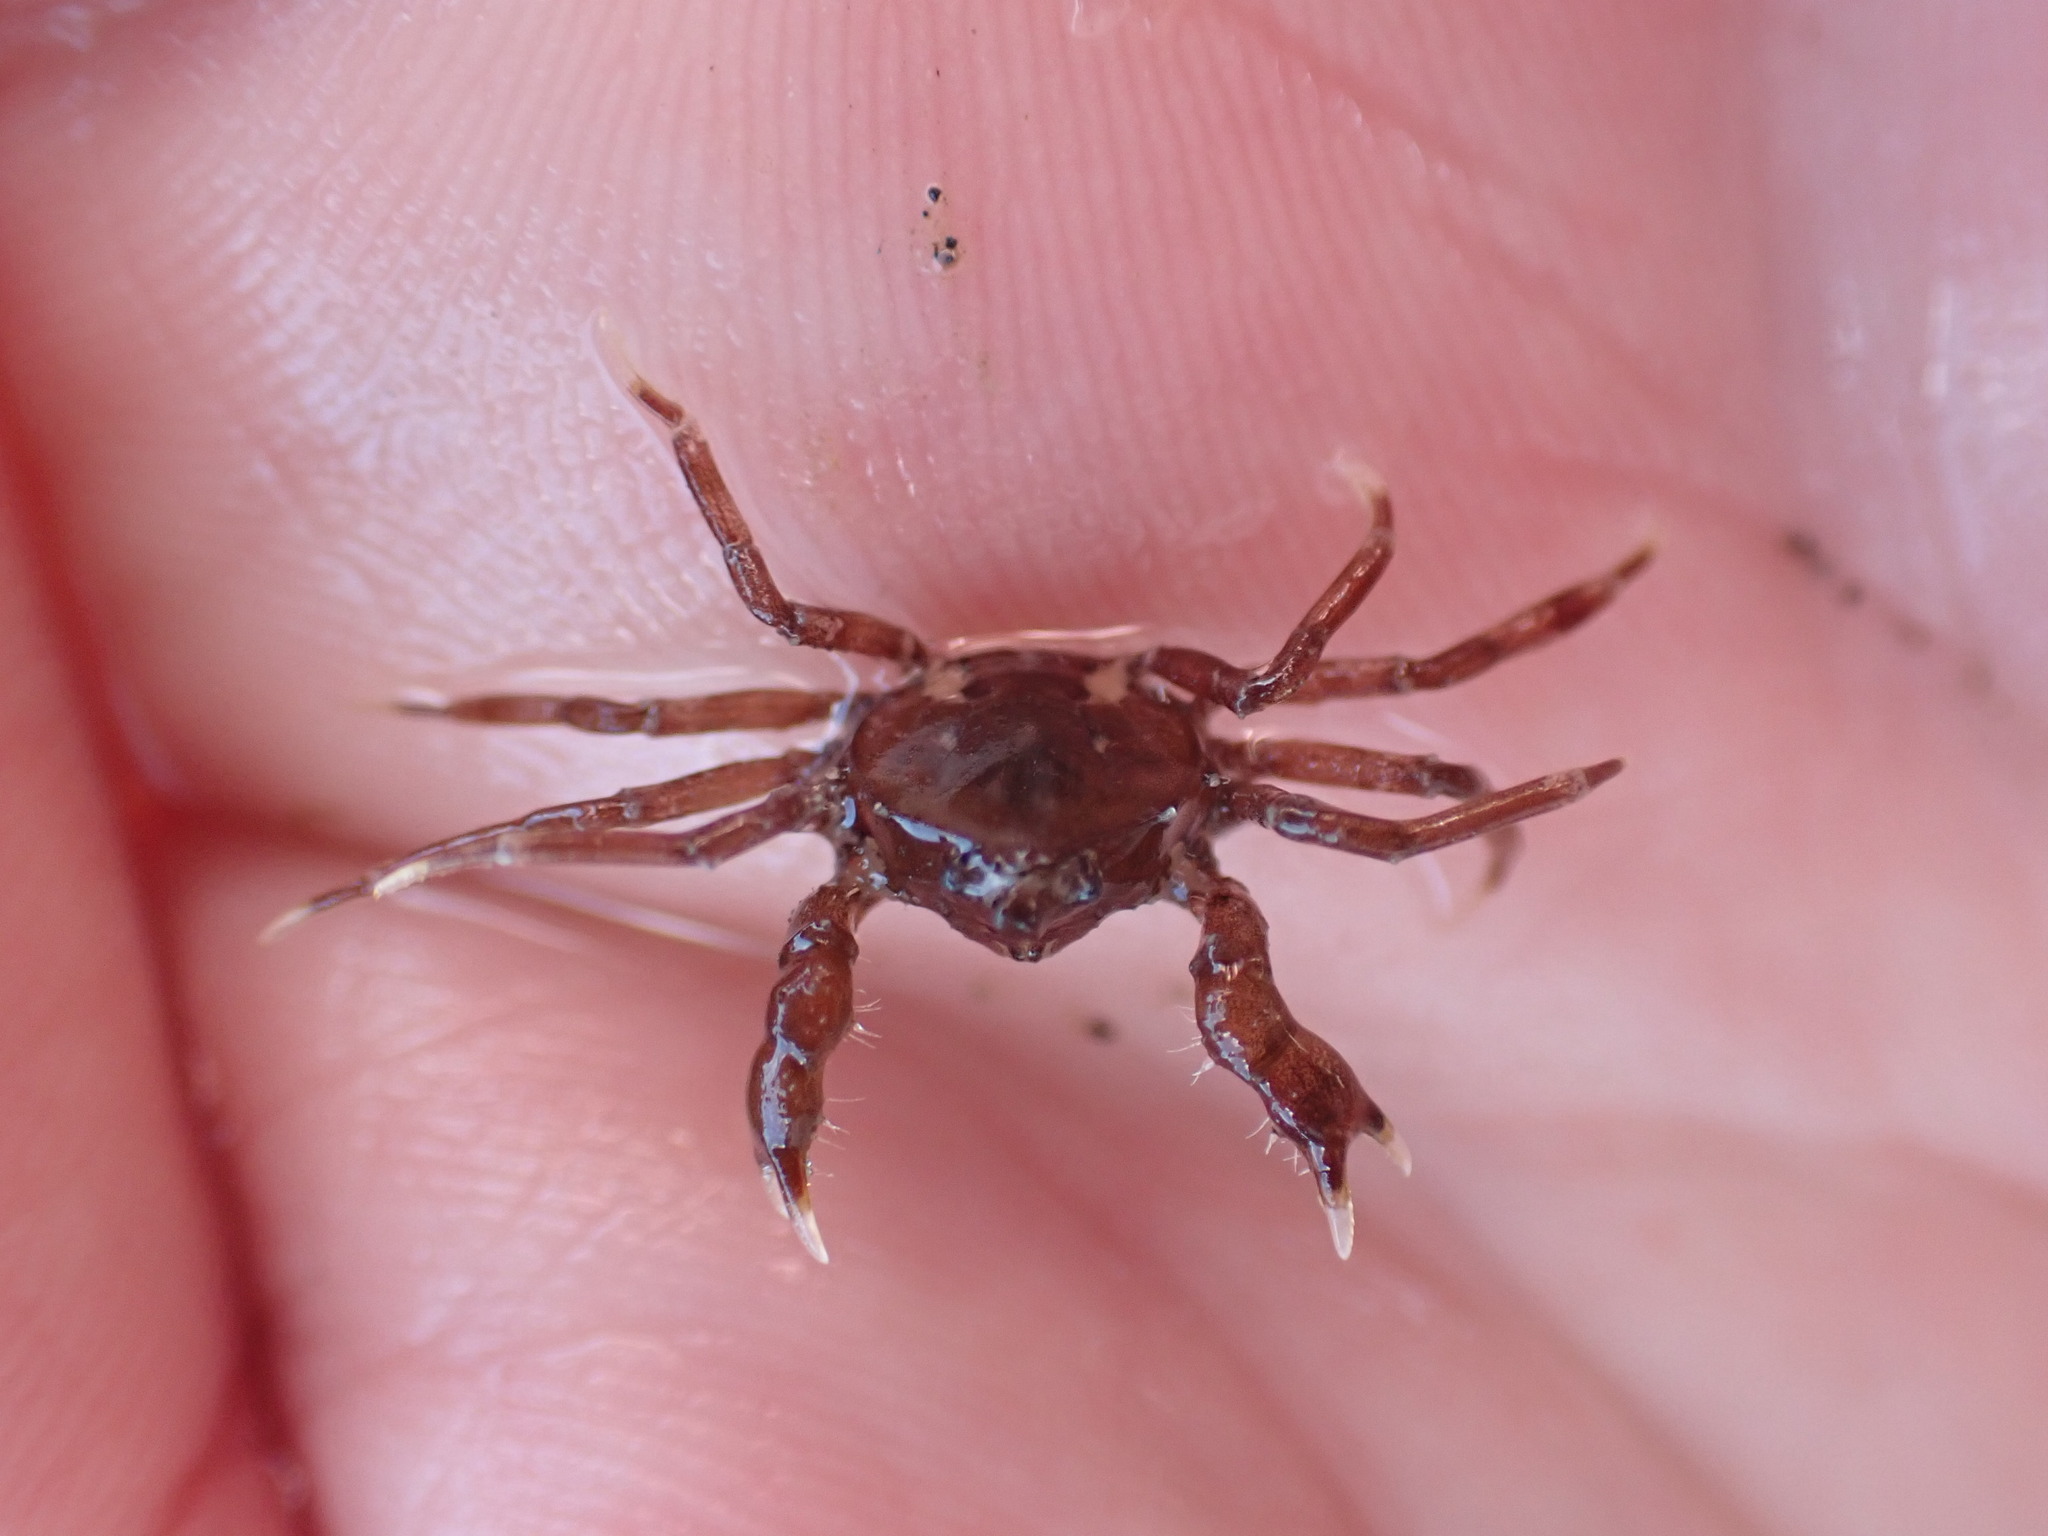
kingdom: Animalia
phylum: Arthropoda
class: Malacostraca
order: Decapoda
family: Hymenosomatidae
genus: Halicarcinus
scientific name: Halicarcinus cookii
